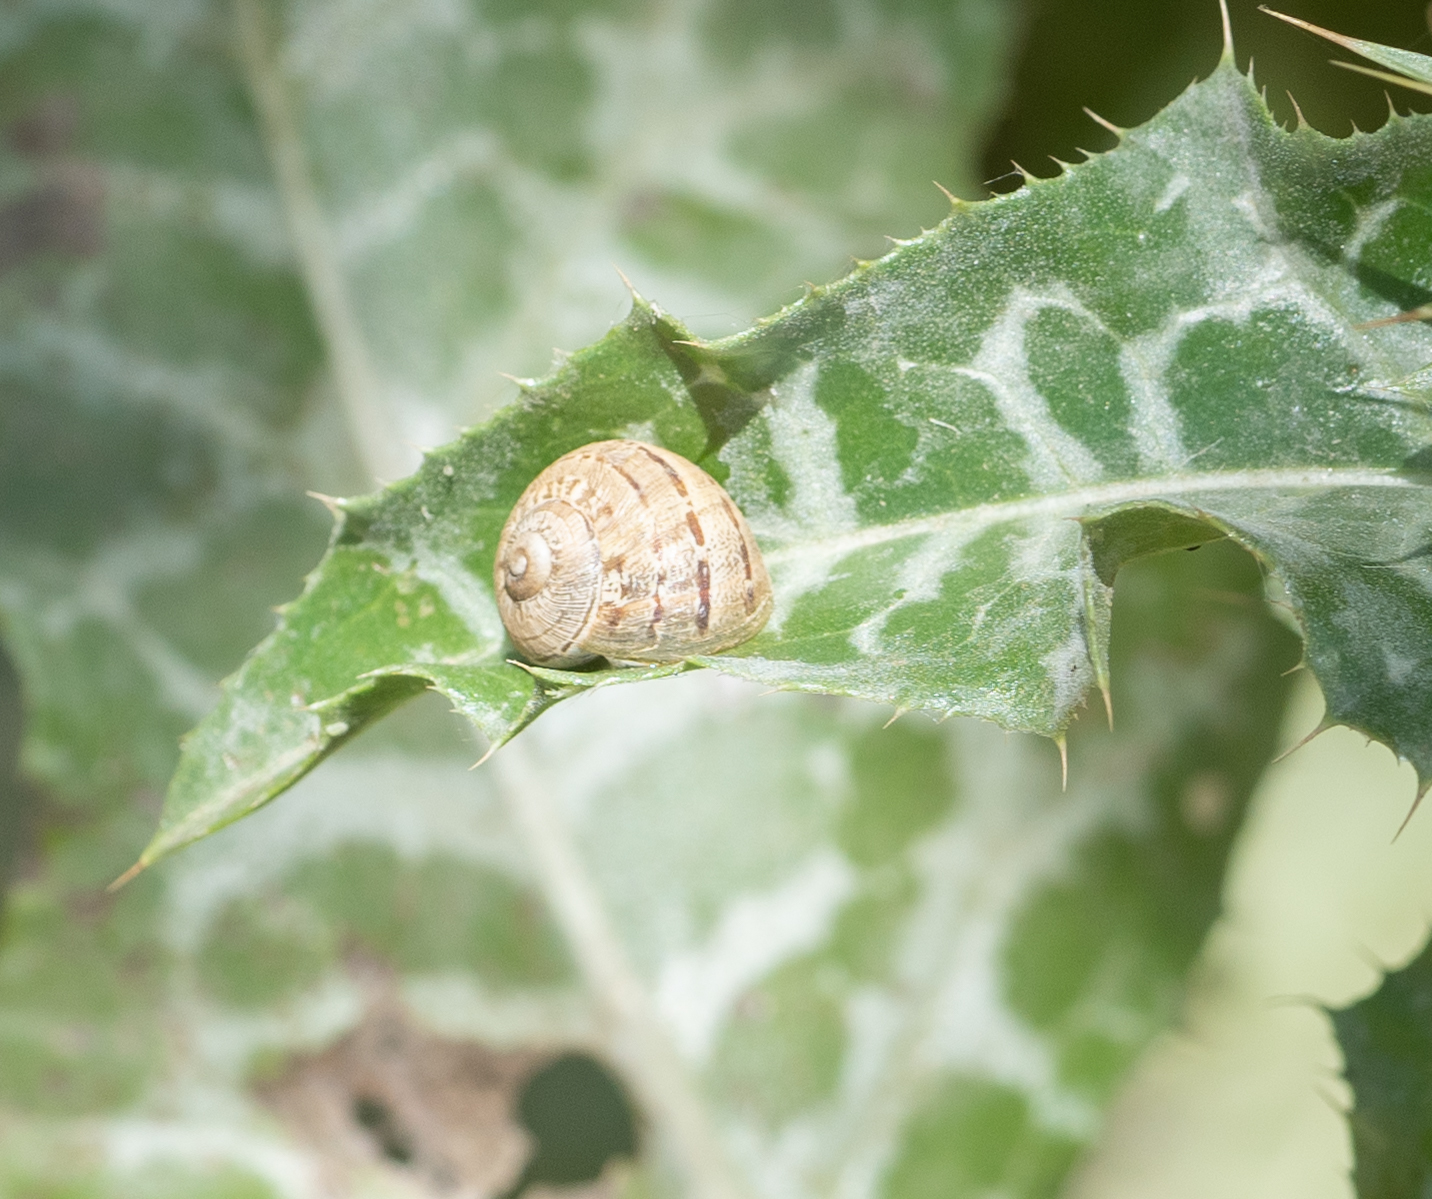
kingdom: Animalia
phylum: Mollusca
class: Gastropoda
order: Stylommatophora
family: Helicidae
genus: Cornu
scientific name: Cornu aspersum
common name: Brown garden snail
